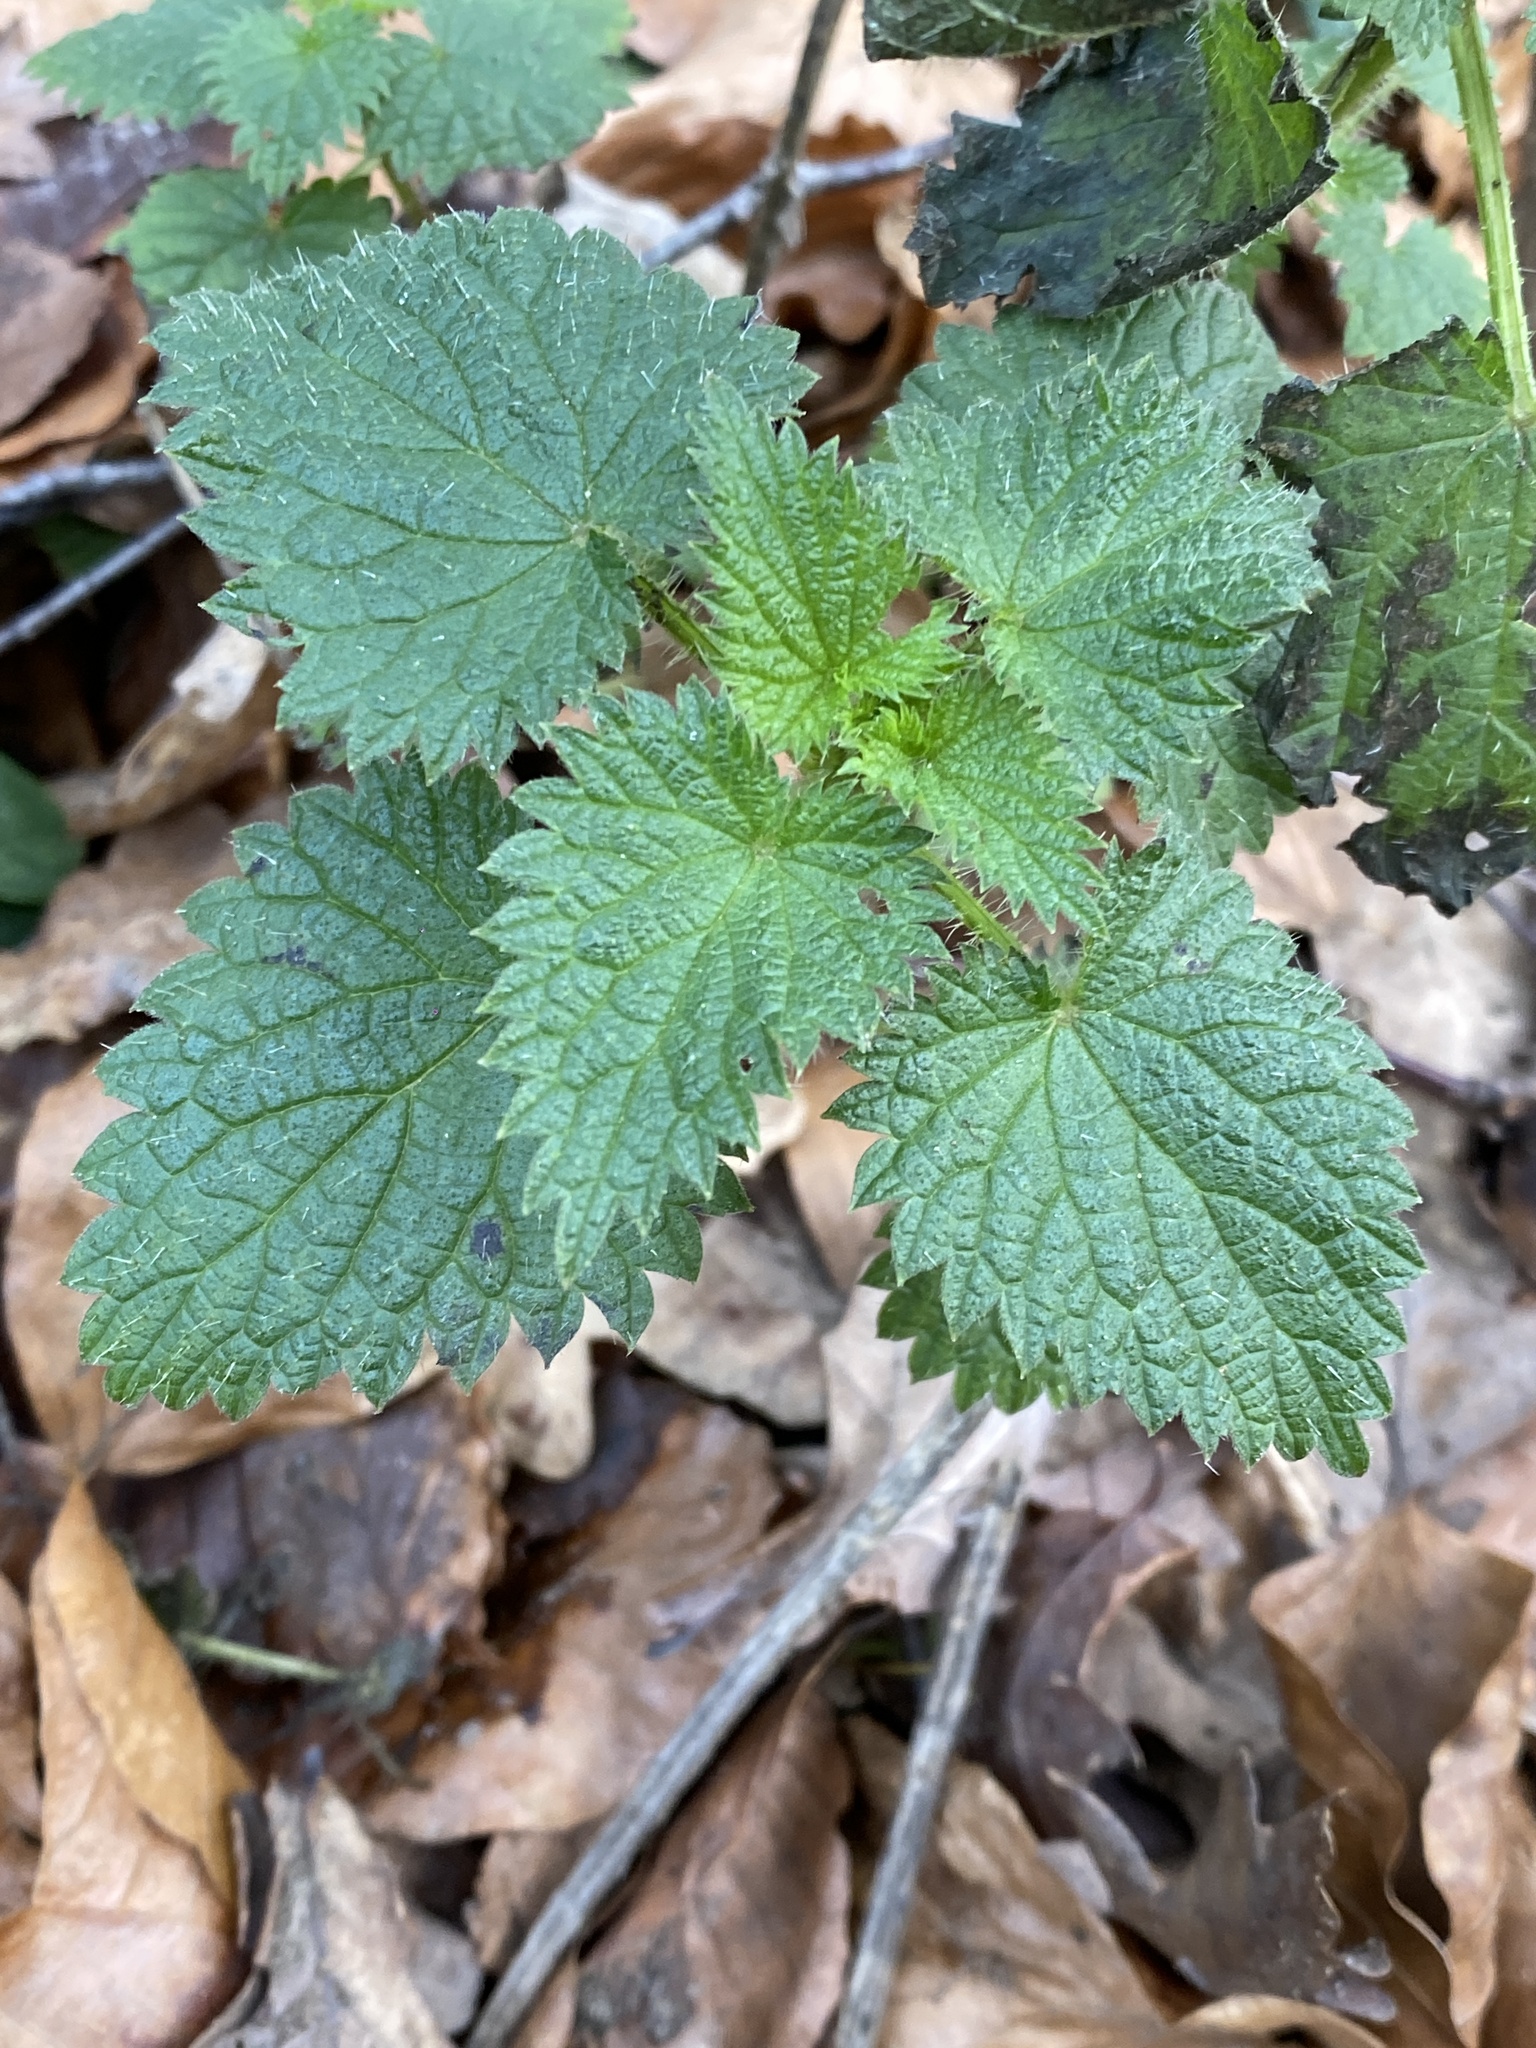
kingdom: Plantae
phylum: Tracheophyta
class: Magnoliopsida
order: Rosales
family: Urticaceae
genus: Urtica
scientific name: Urtica dioica
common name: Common nettle
